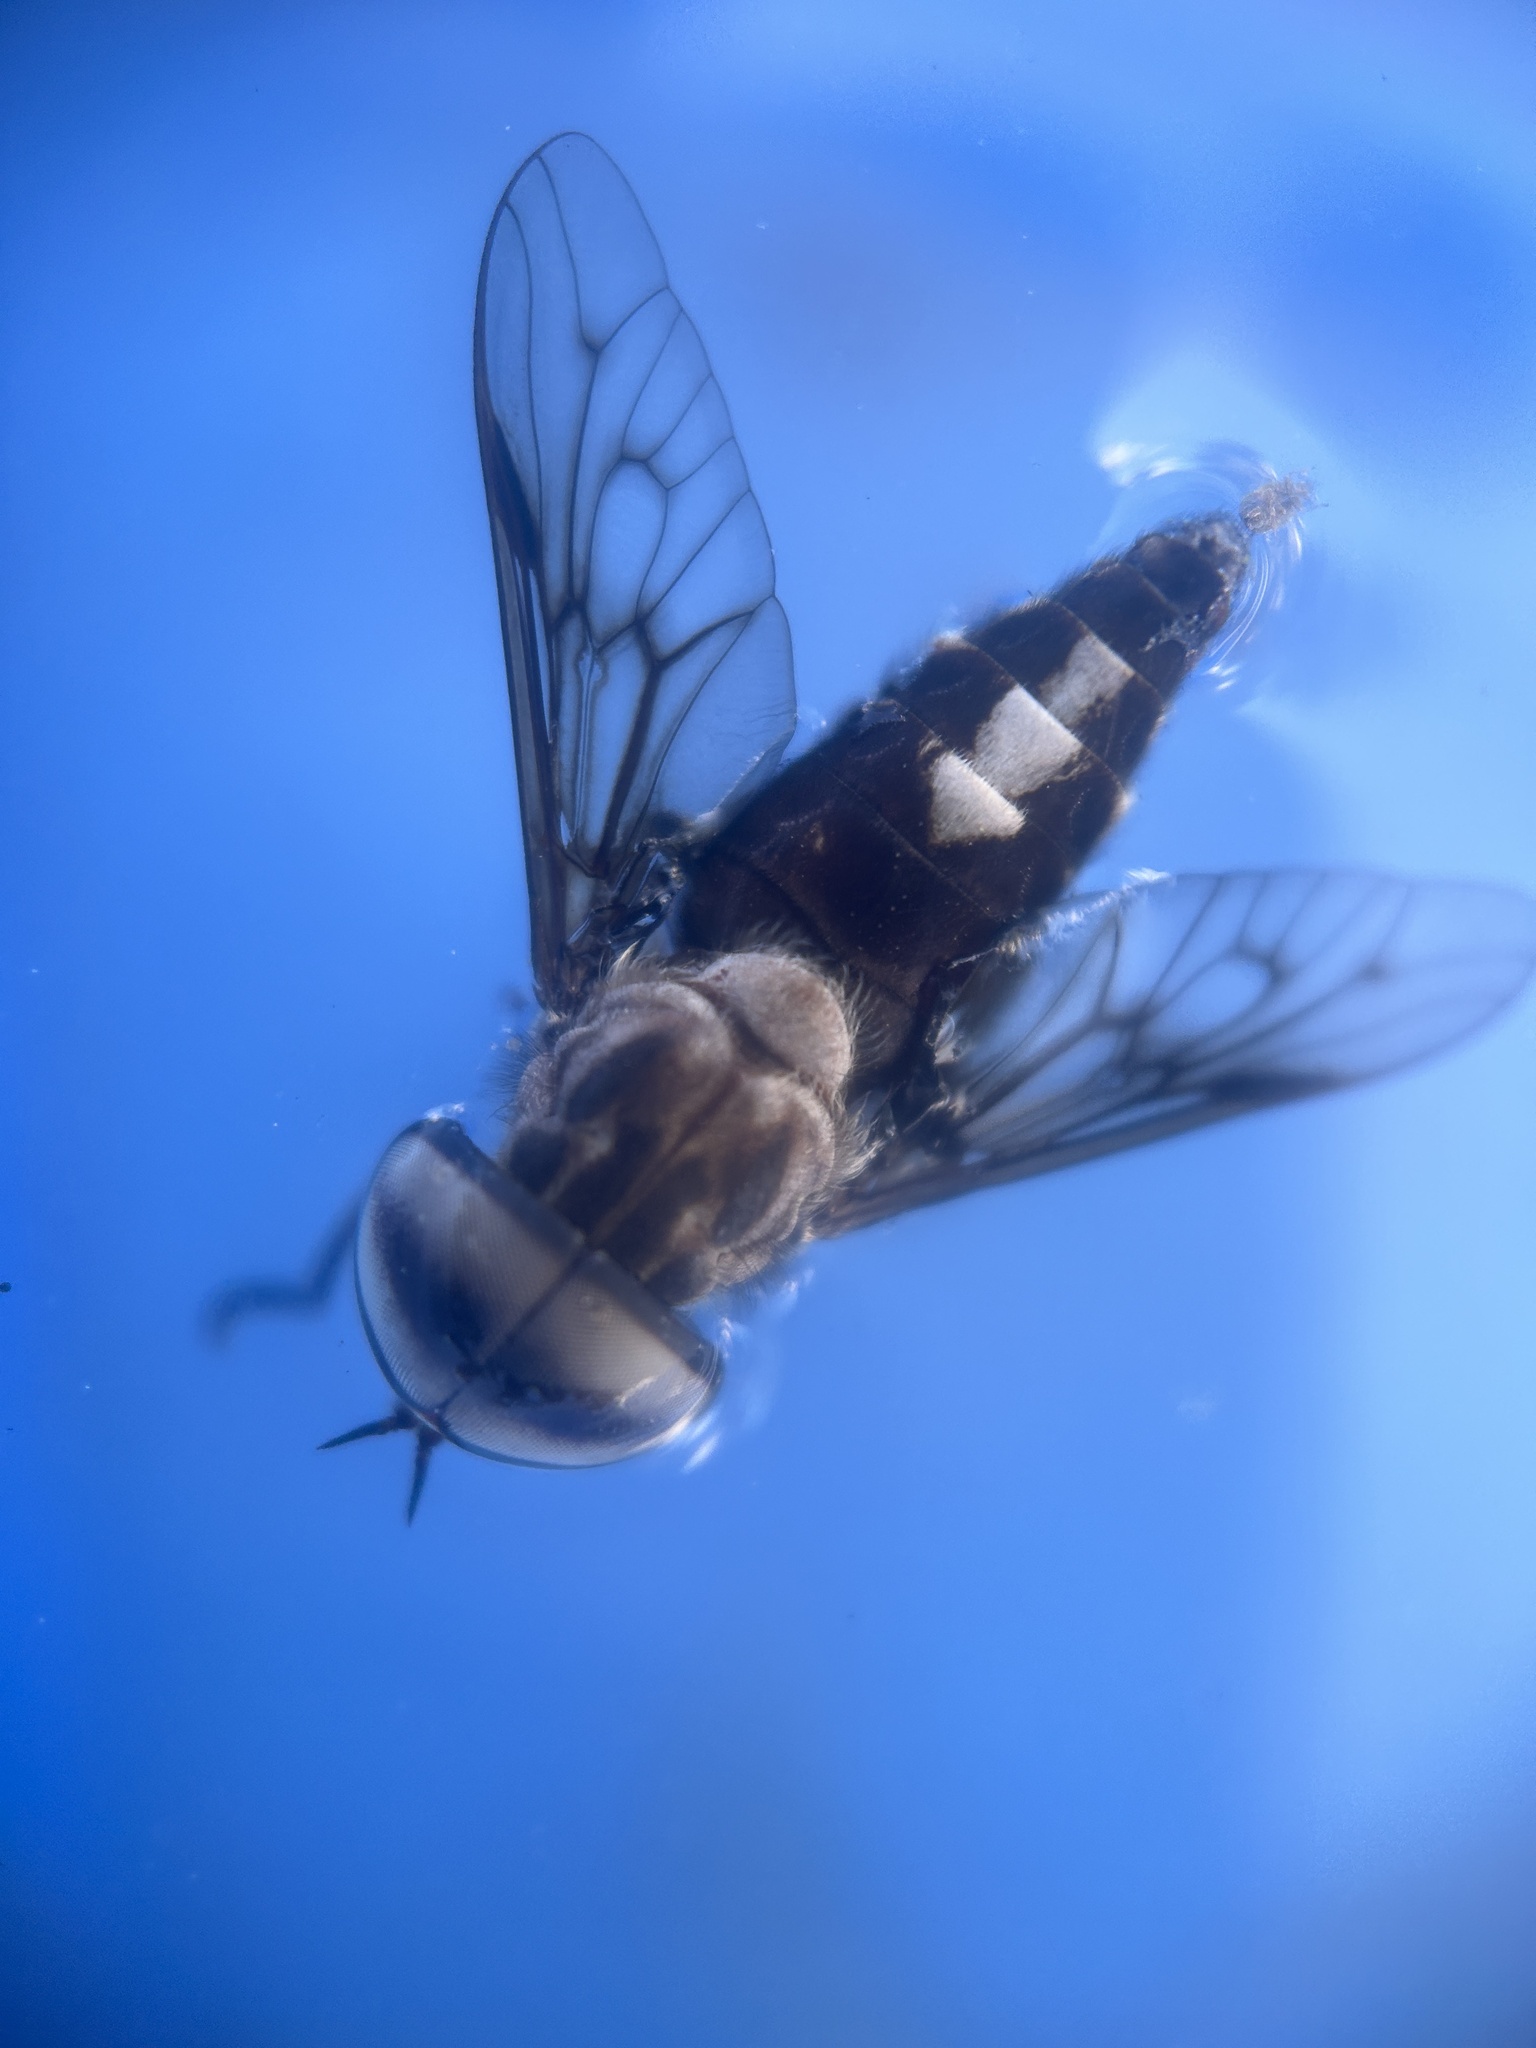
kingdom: Animalia
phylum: Arthropoda
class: Insecta
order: Diptera
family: Tabanidae
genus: Tabanus
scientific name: Tabanus trimaculatus
